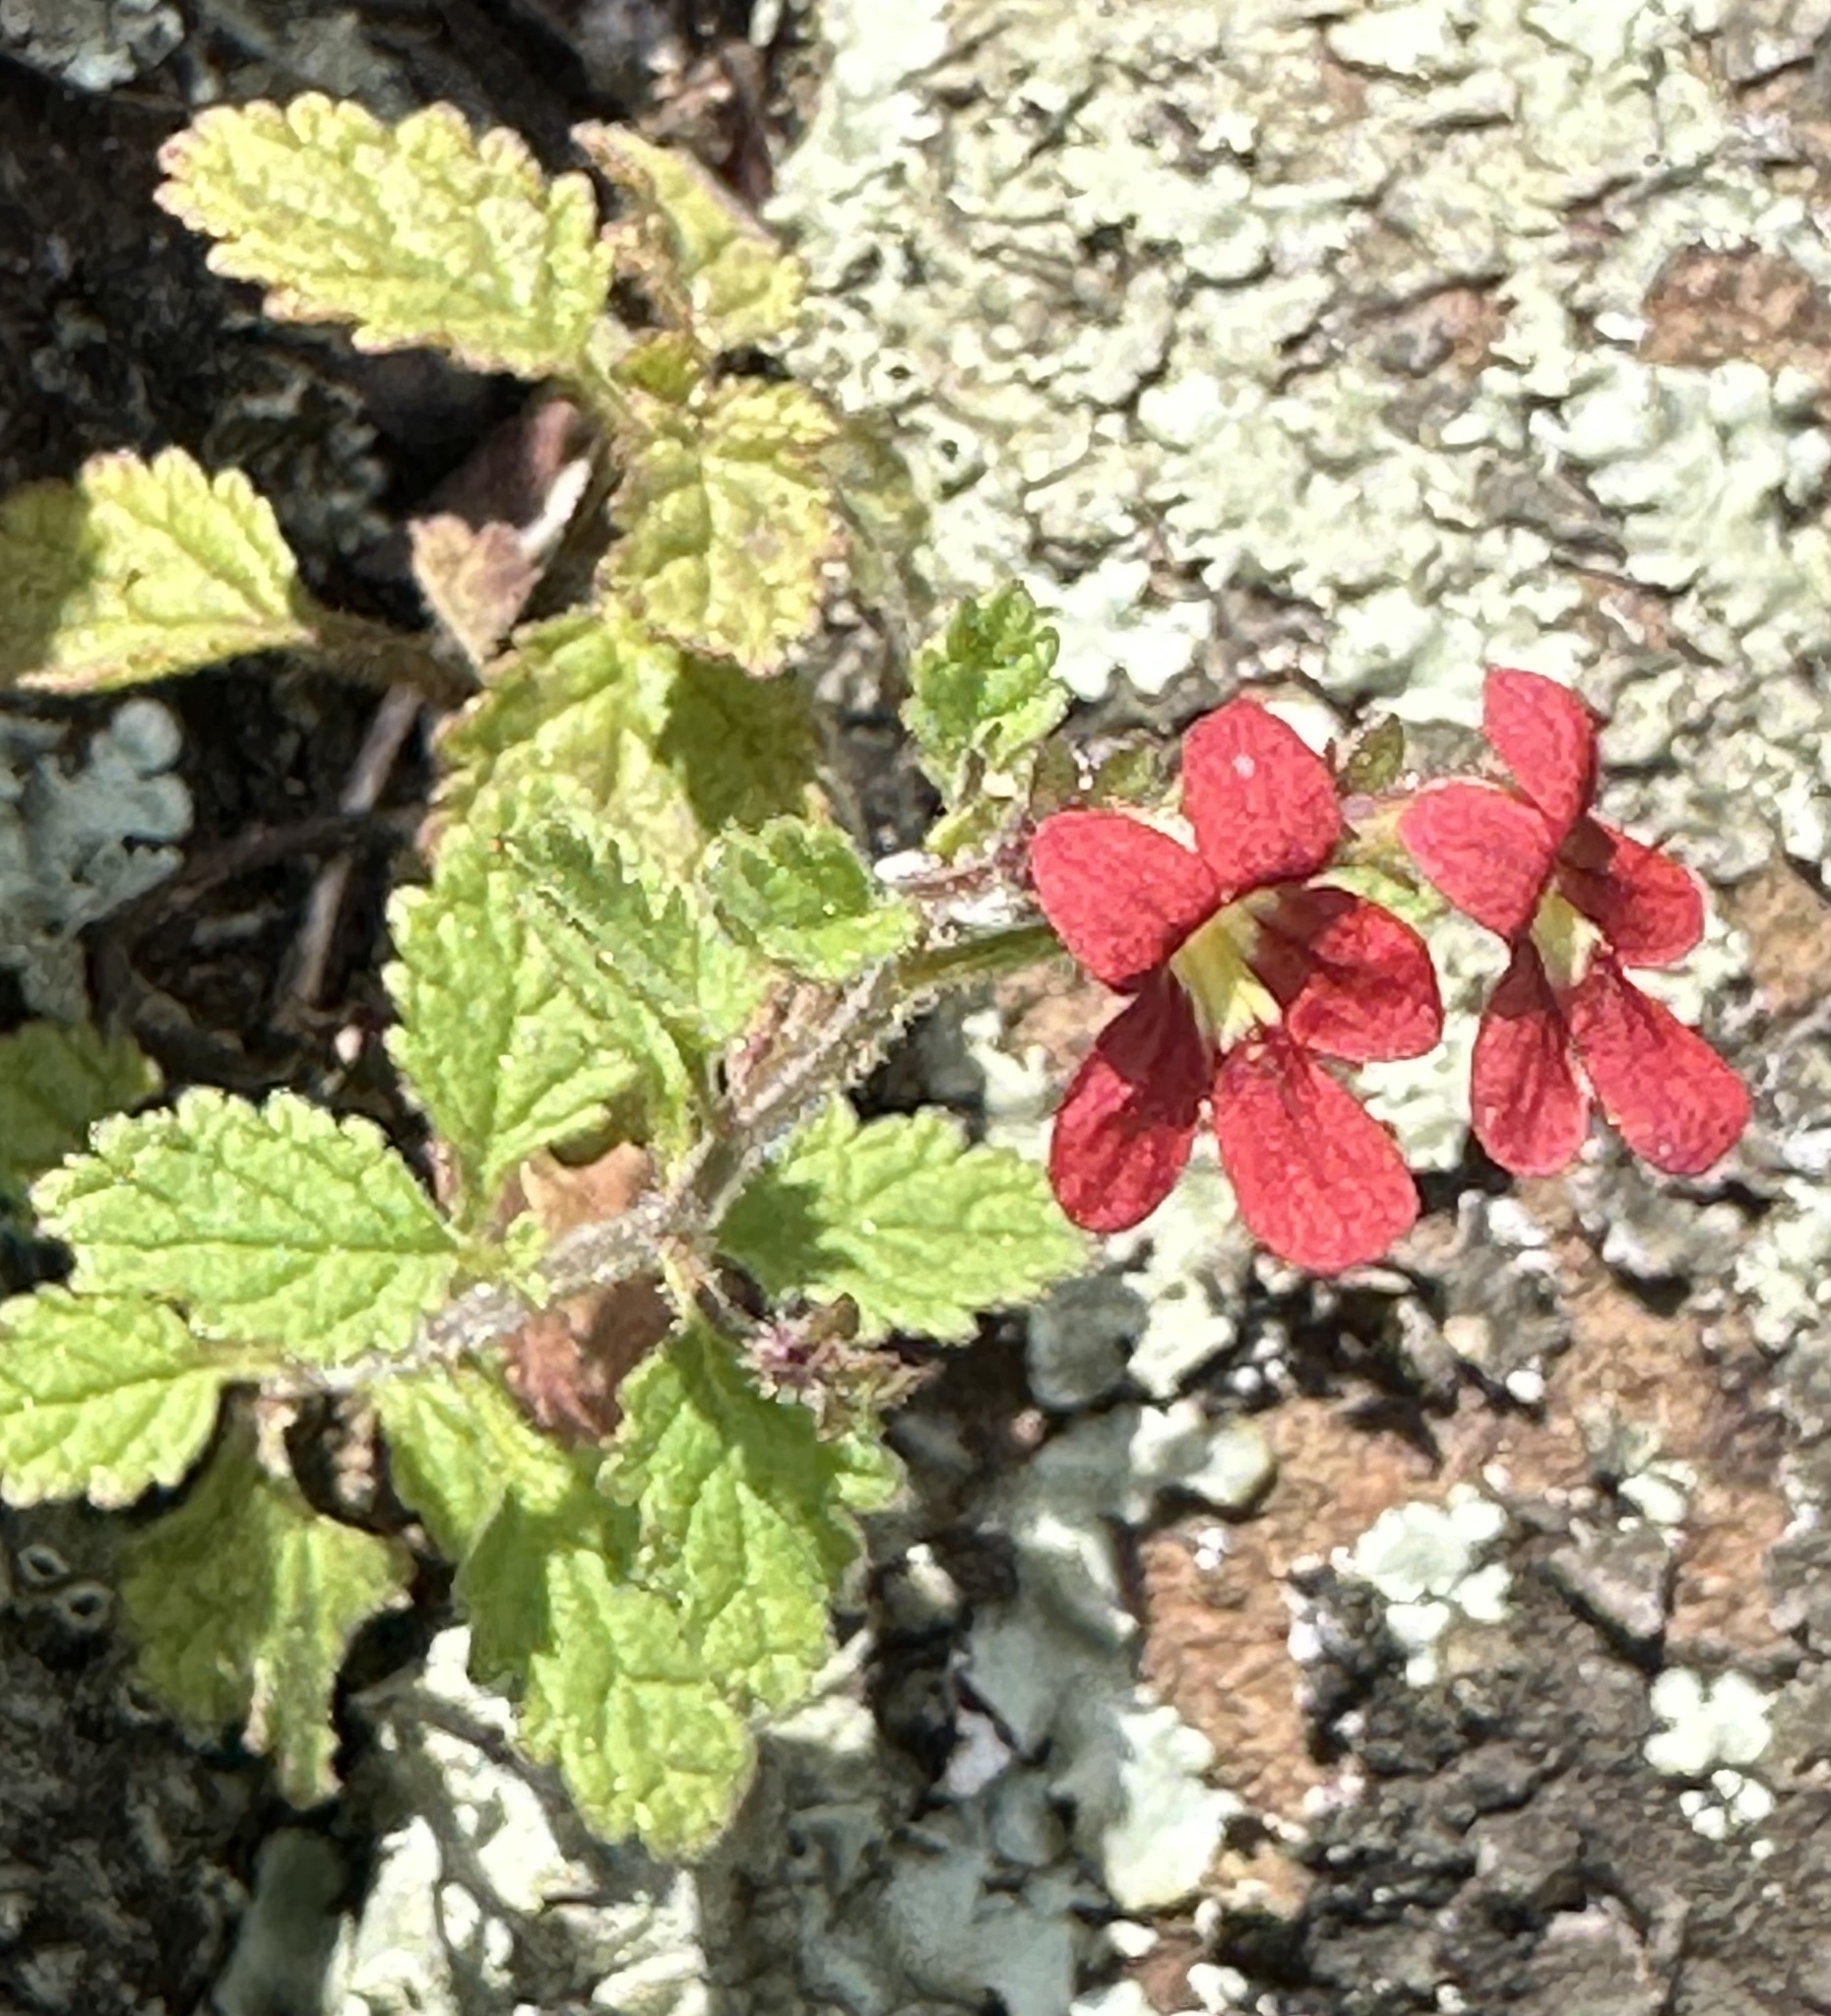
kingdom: Plantae
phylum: Tracheophyta
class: Magnoliopsida
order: Lamiales
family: Scrophulariaceae
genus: Jamesbrittenia
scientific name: Jamesbrittenia breviflora
